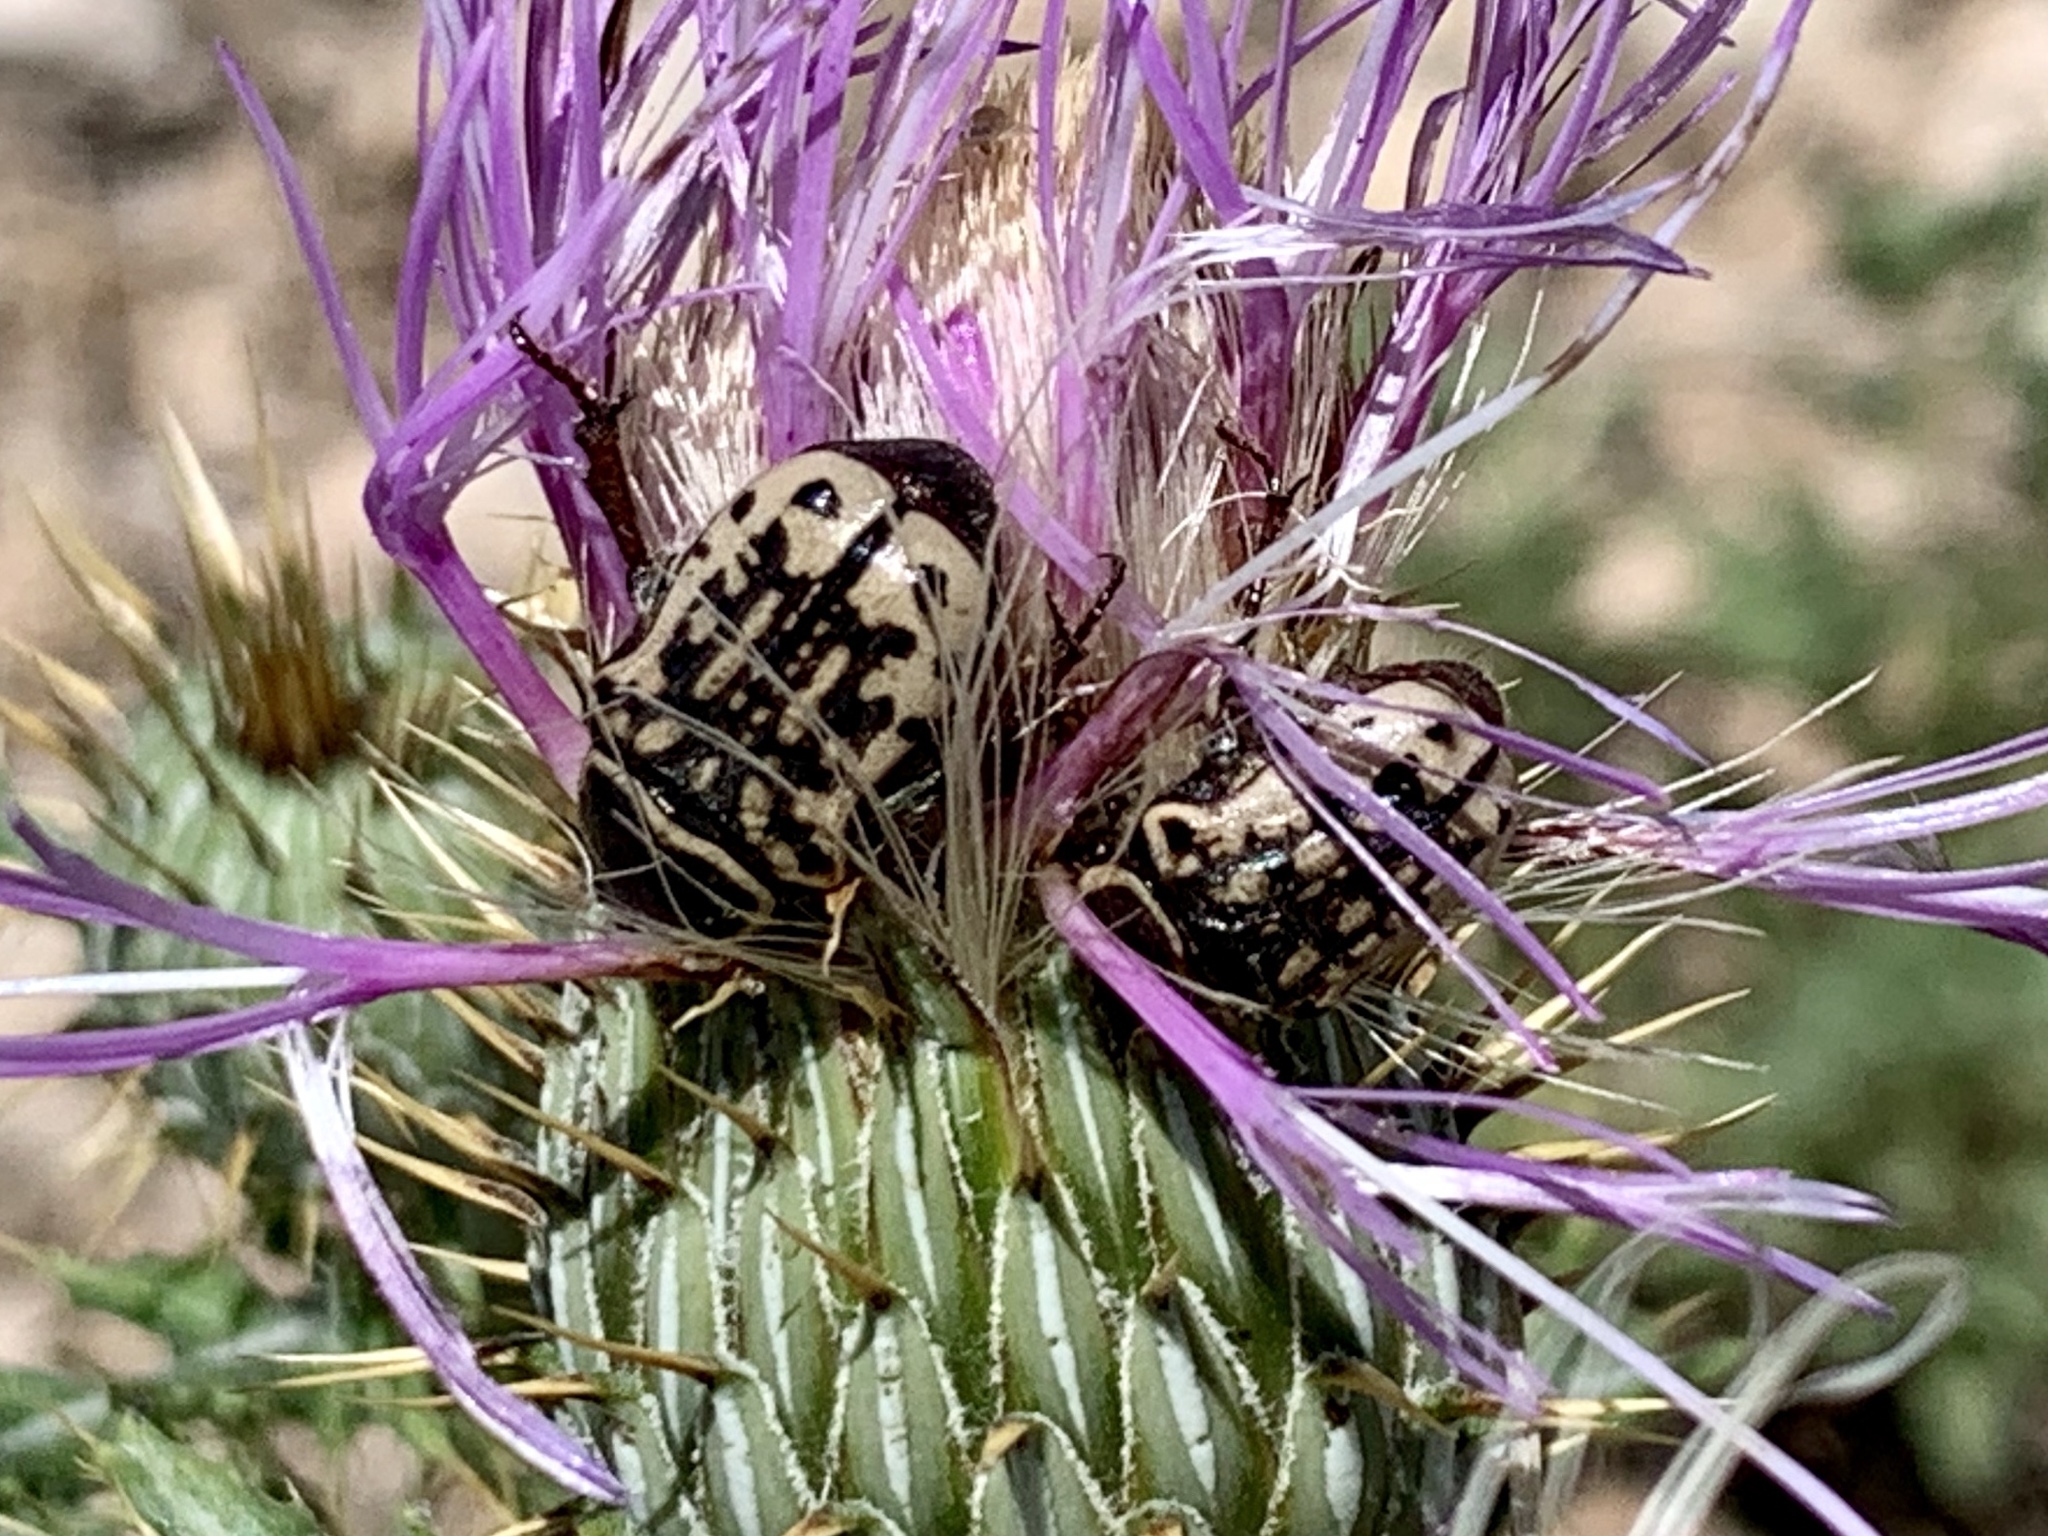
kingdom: Animalia
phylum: Arthropoda
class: Insecta
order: Coleoptera
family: Scarabaeidae
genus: Euphoria
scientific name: Euphoria kernii
